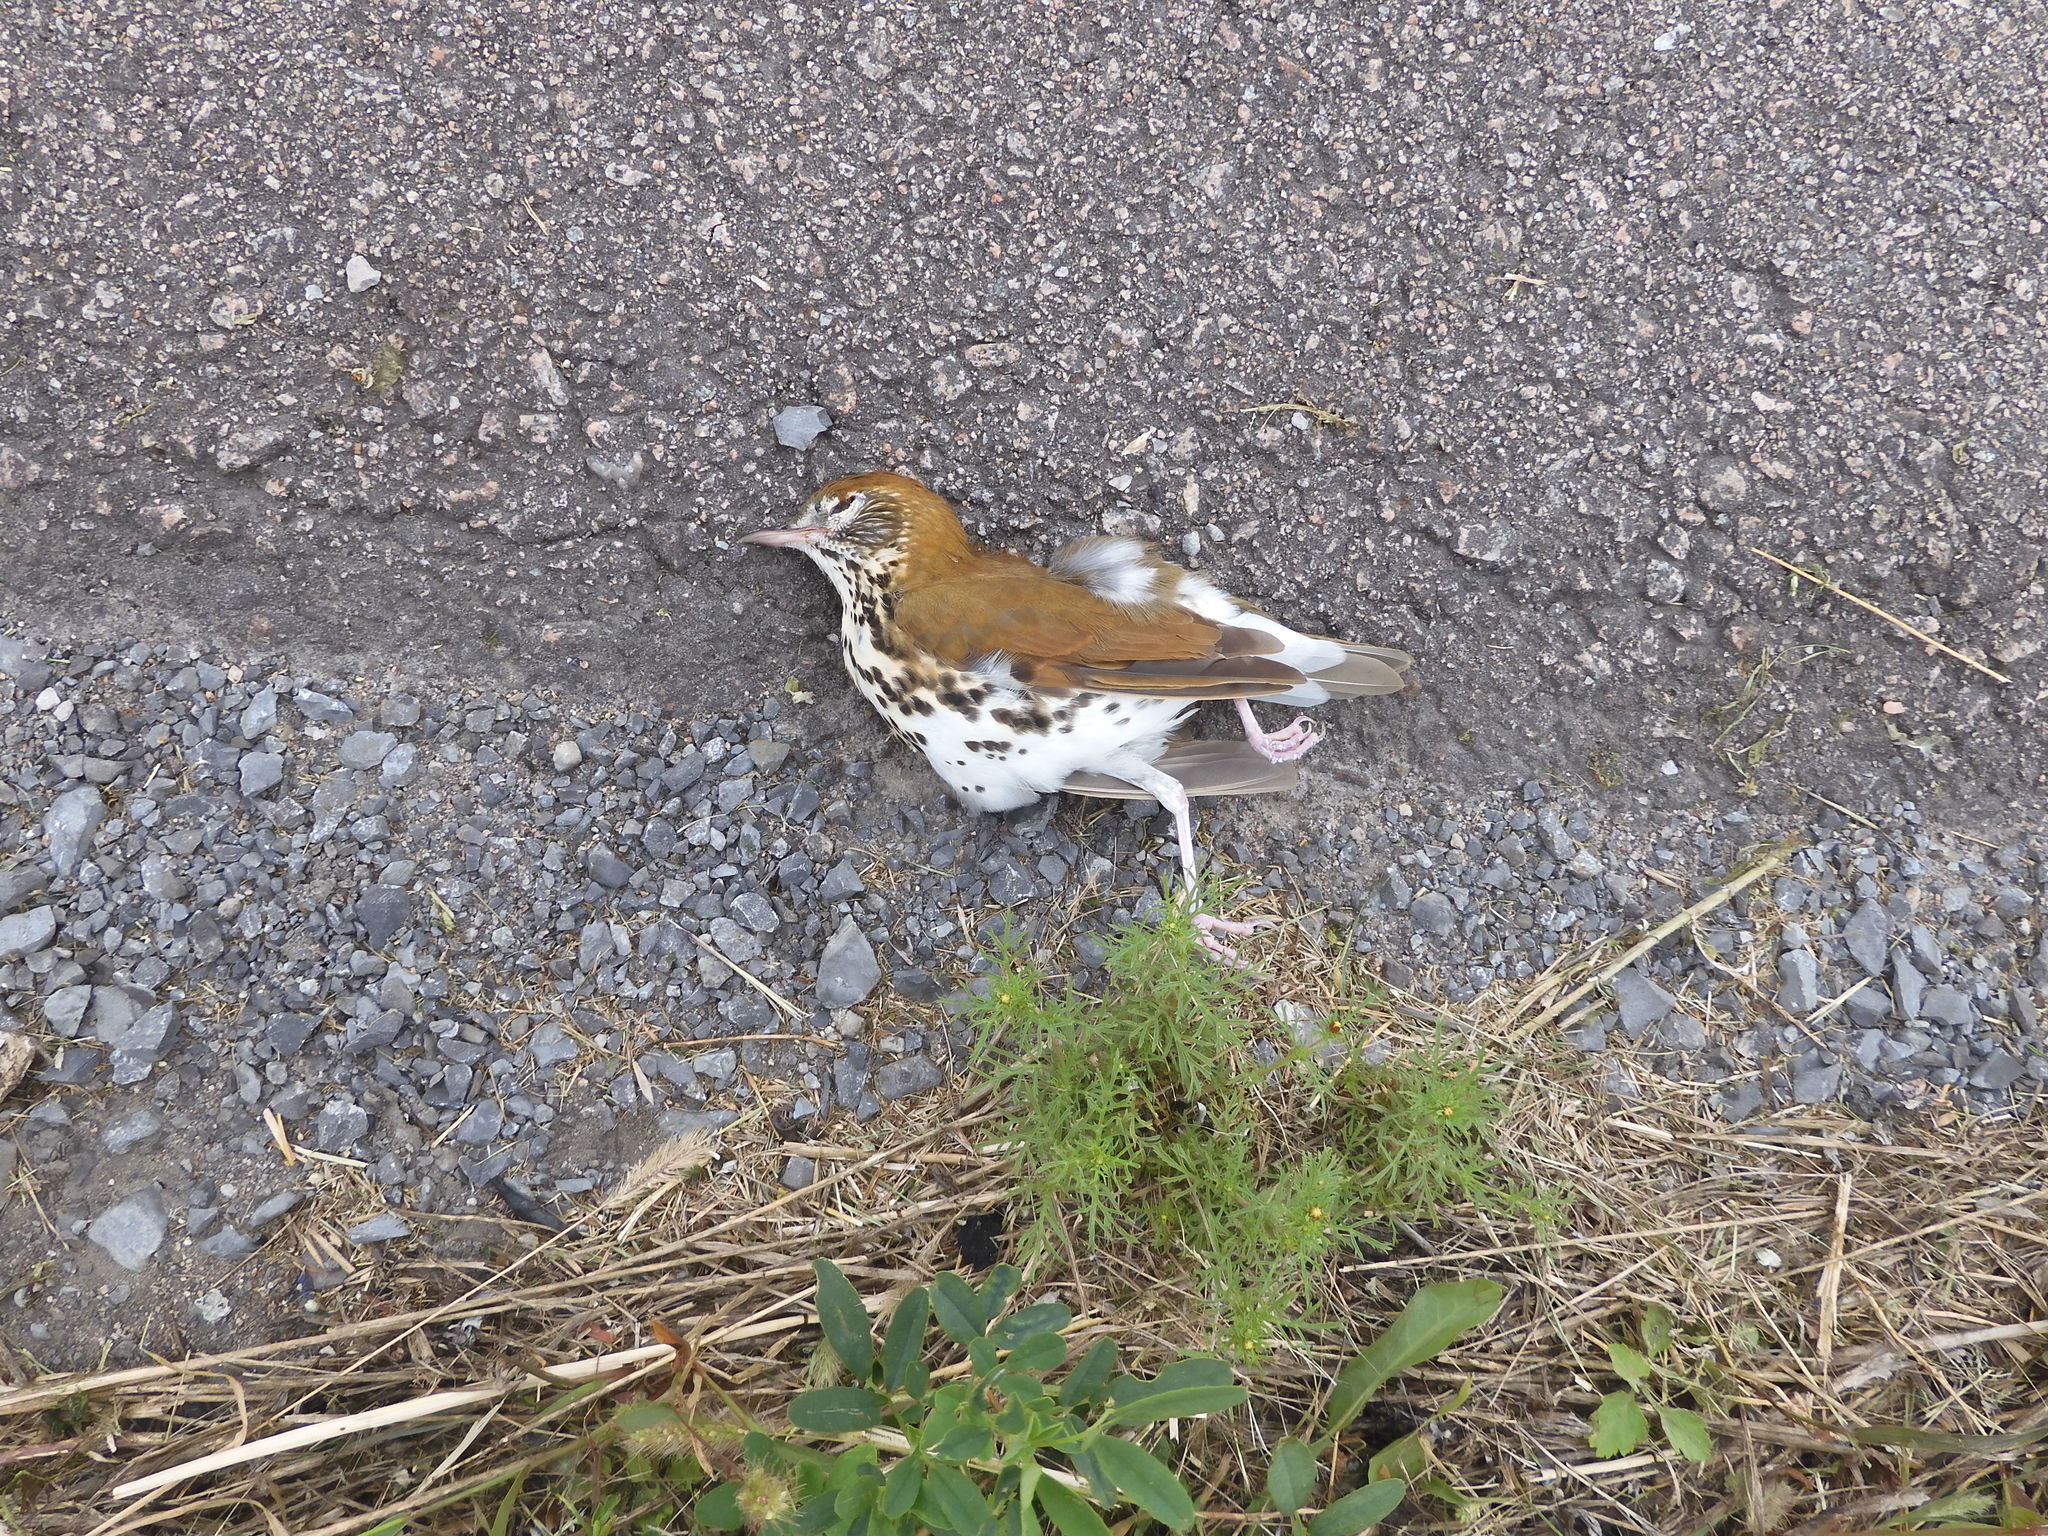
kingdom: Animalia
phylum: Chordata
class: Aves
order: Passeriformes
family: Turdidae
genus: Hylocichla
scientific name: Hylocichla mustelina
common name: Wood thrush
